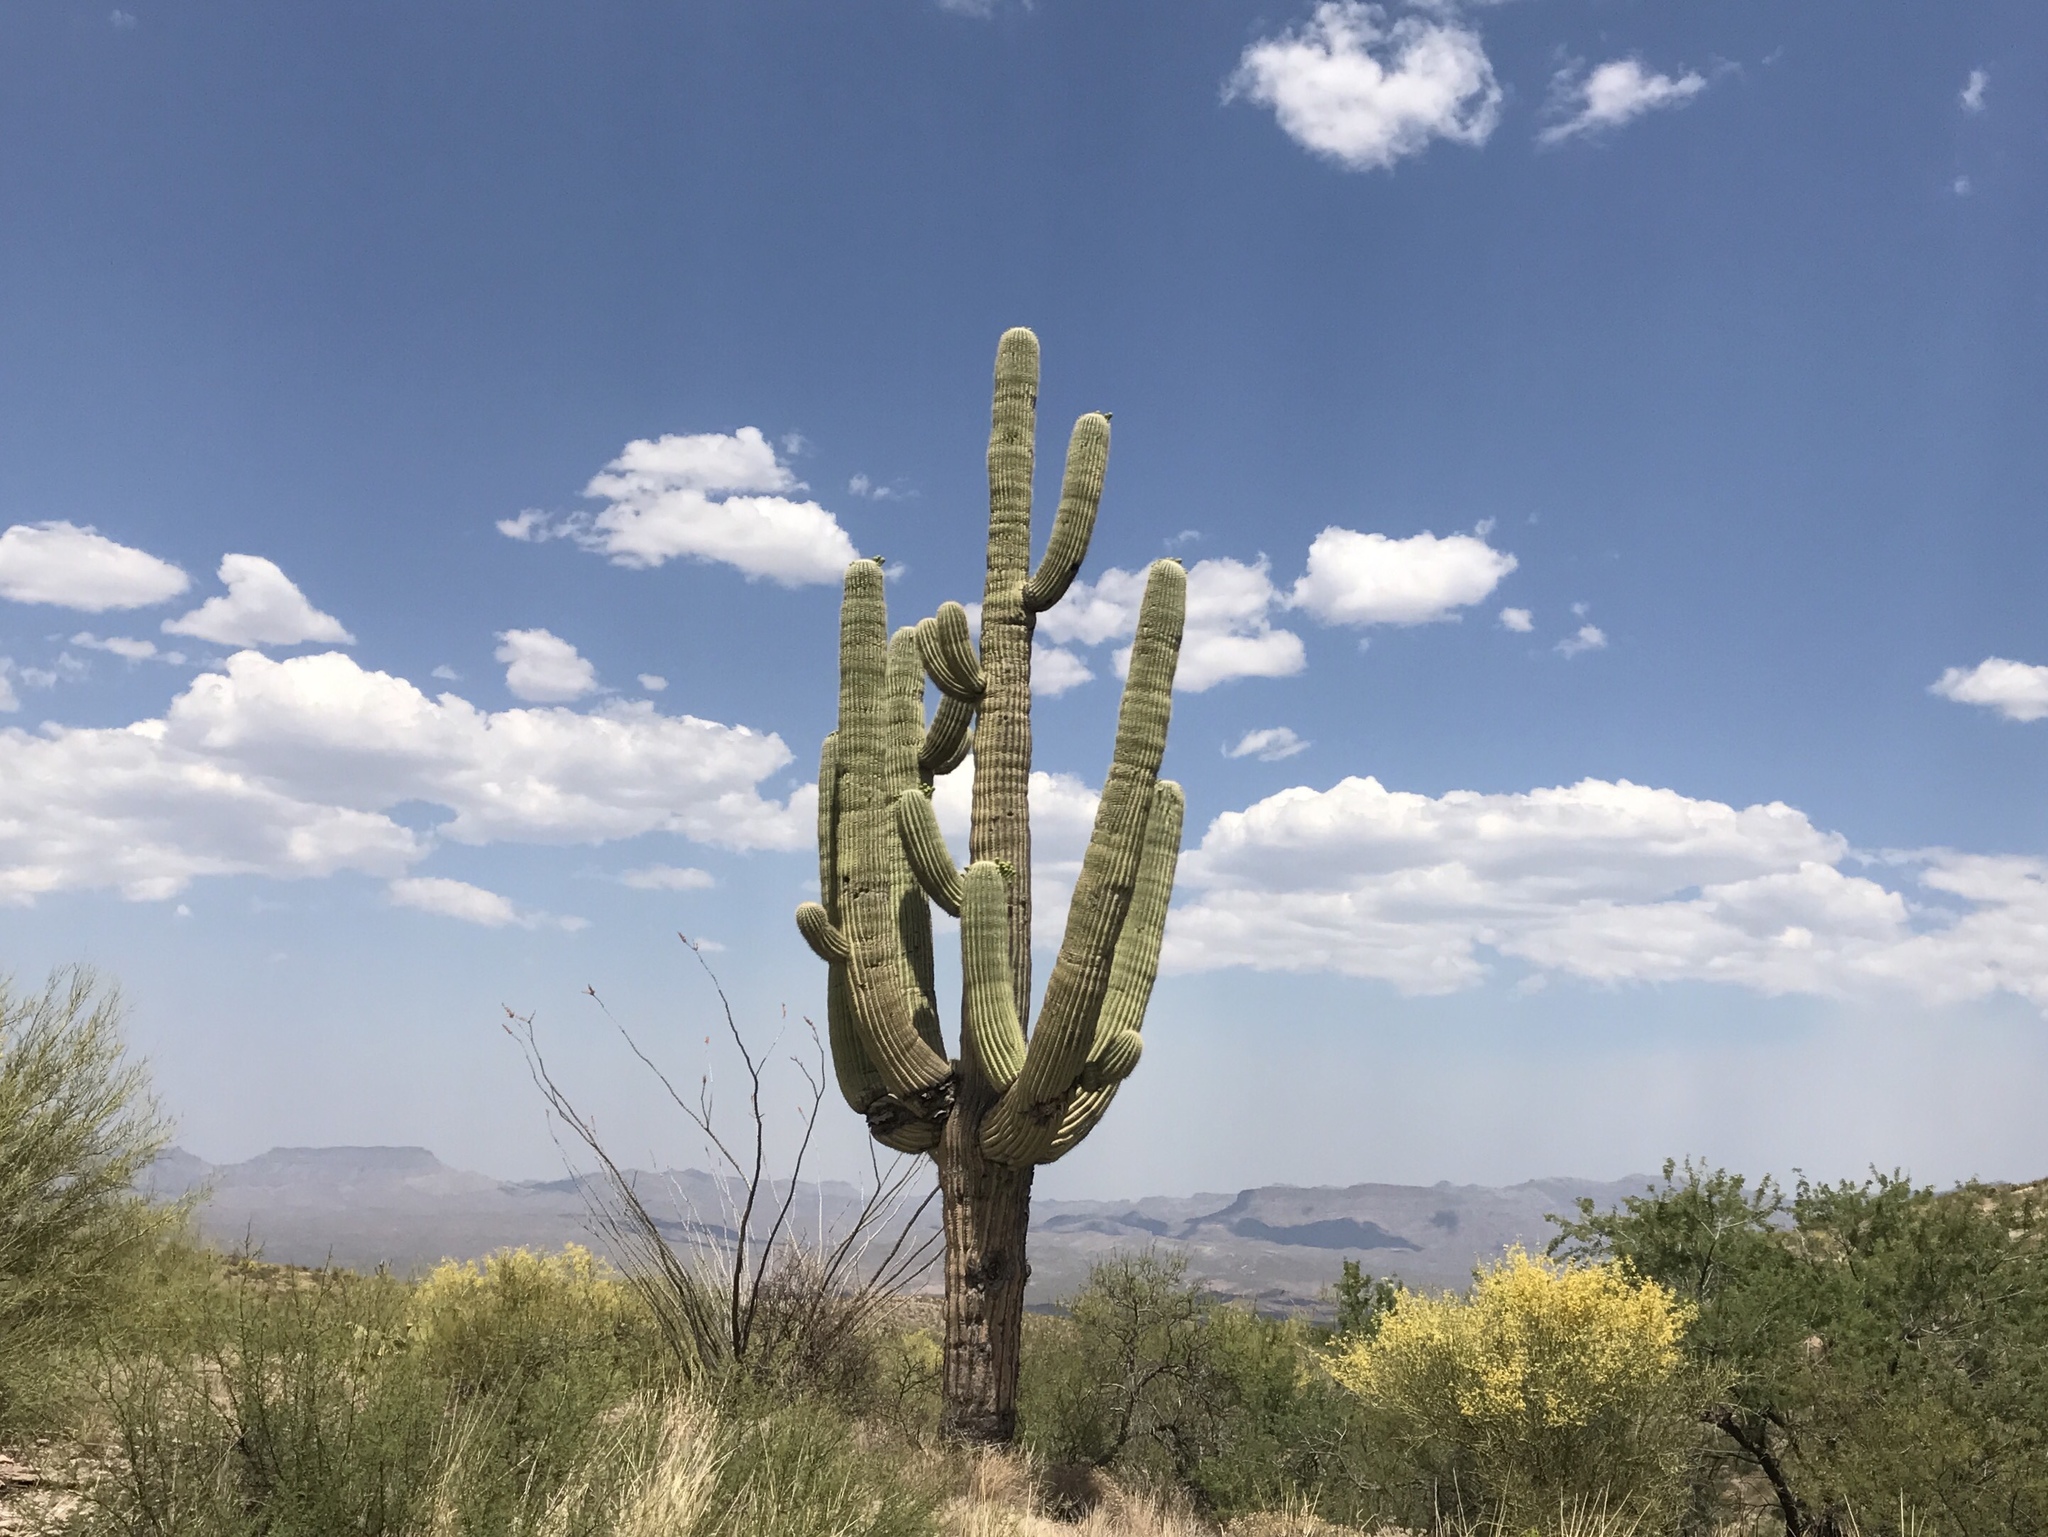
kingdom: Plantae
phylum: Tracheophyta
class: Magnoliopsida
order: Caryophyllales
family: Cactaceae
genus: Carnegiea
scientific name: Carnegiea gigantea
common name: Saguaro
